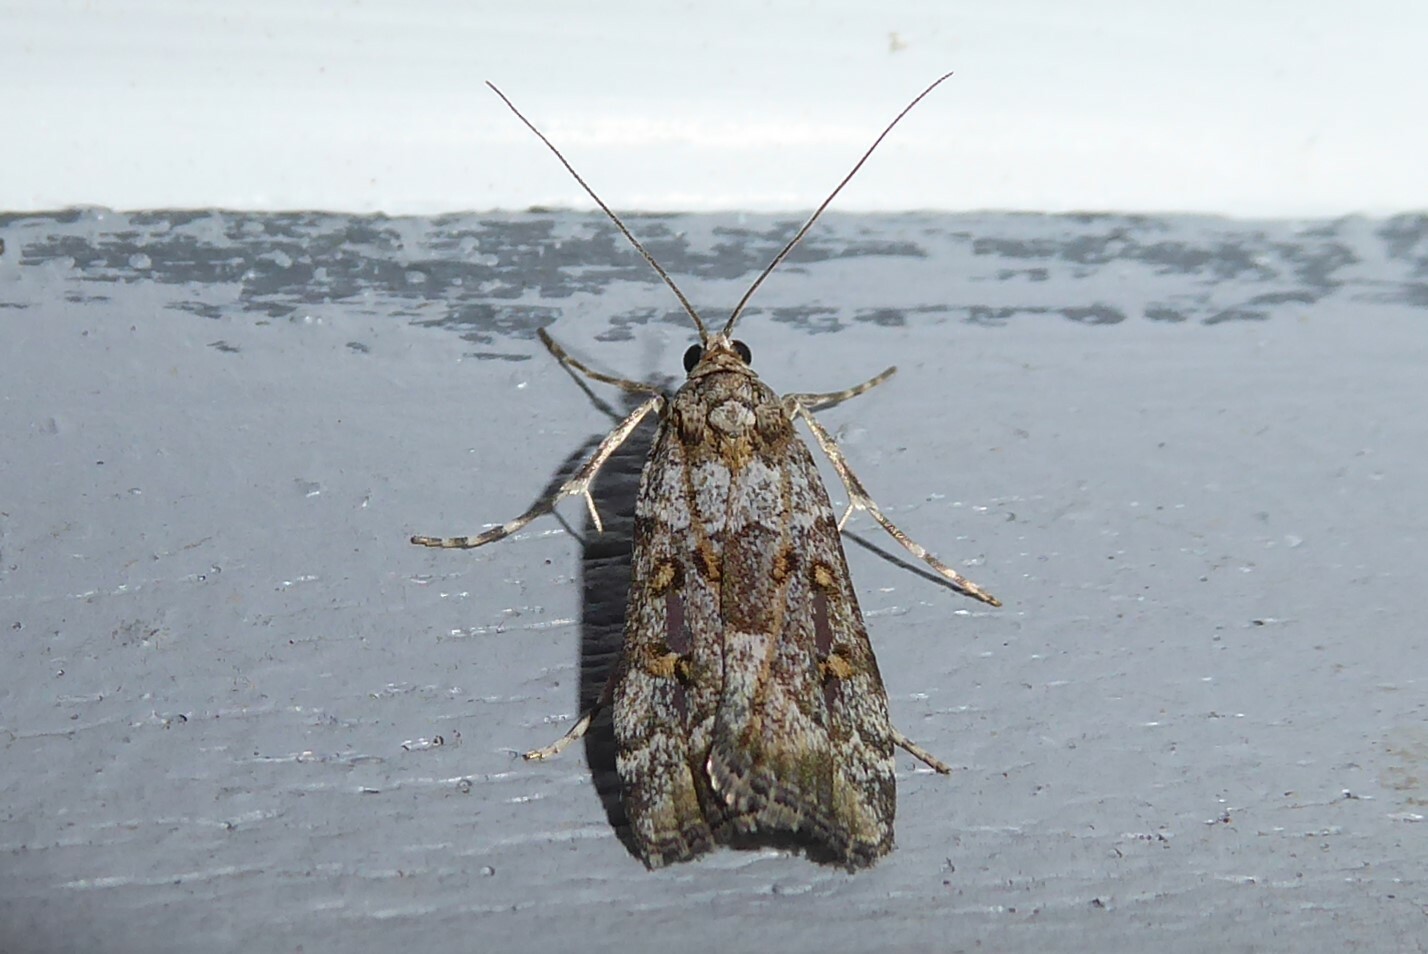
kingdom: Animalia
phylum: Arthropoda
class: Insecta
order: Lepidoptera
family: Crambidae
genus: Scoparia
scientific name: Scoparia tetracycla
